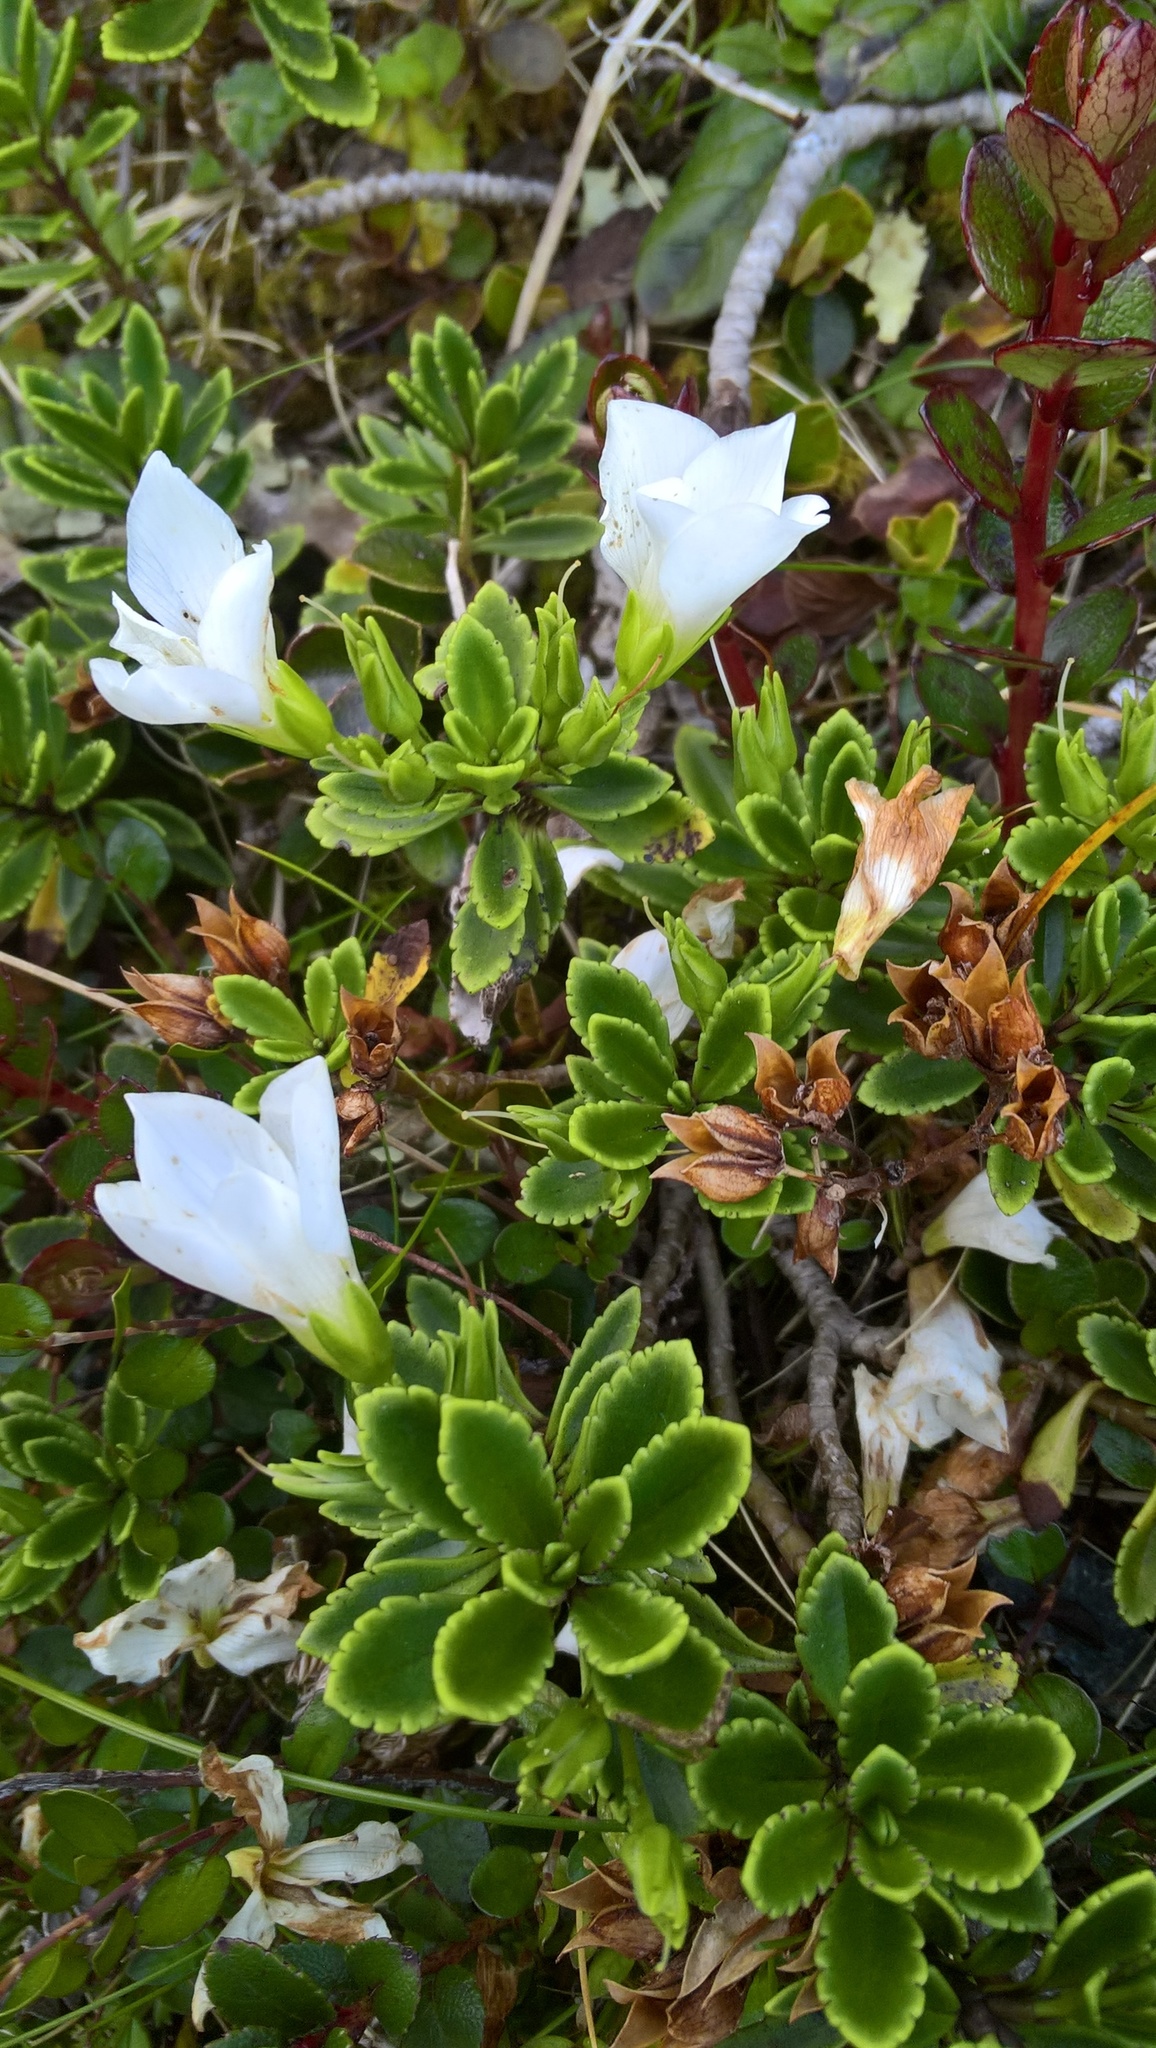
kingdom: Plantae
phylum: Tracheophyta
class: Magnoliopsida
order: Lamiales
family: Plantaginaceae
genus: Veronica
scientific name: Veronica macrantha
